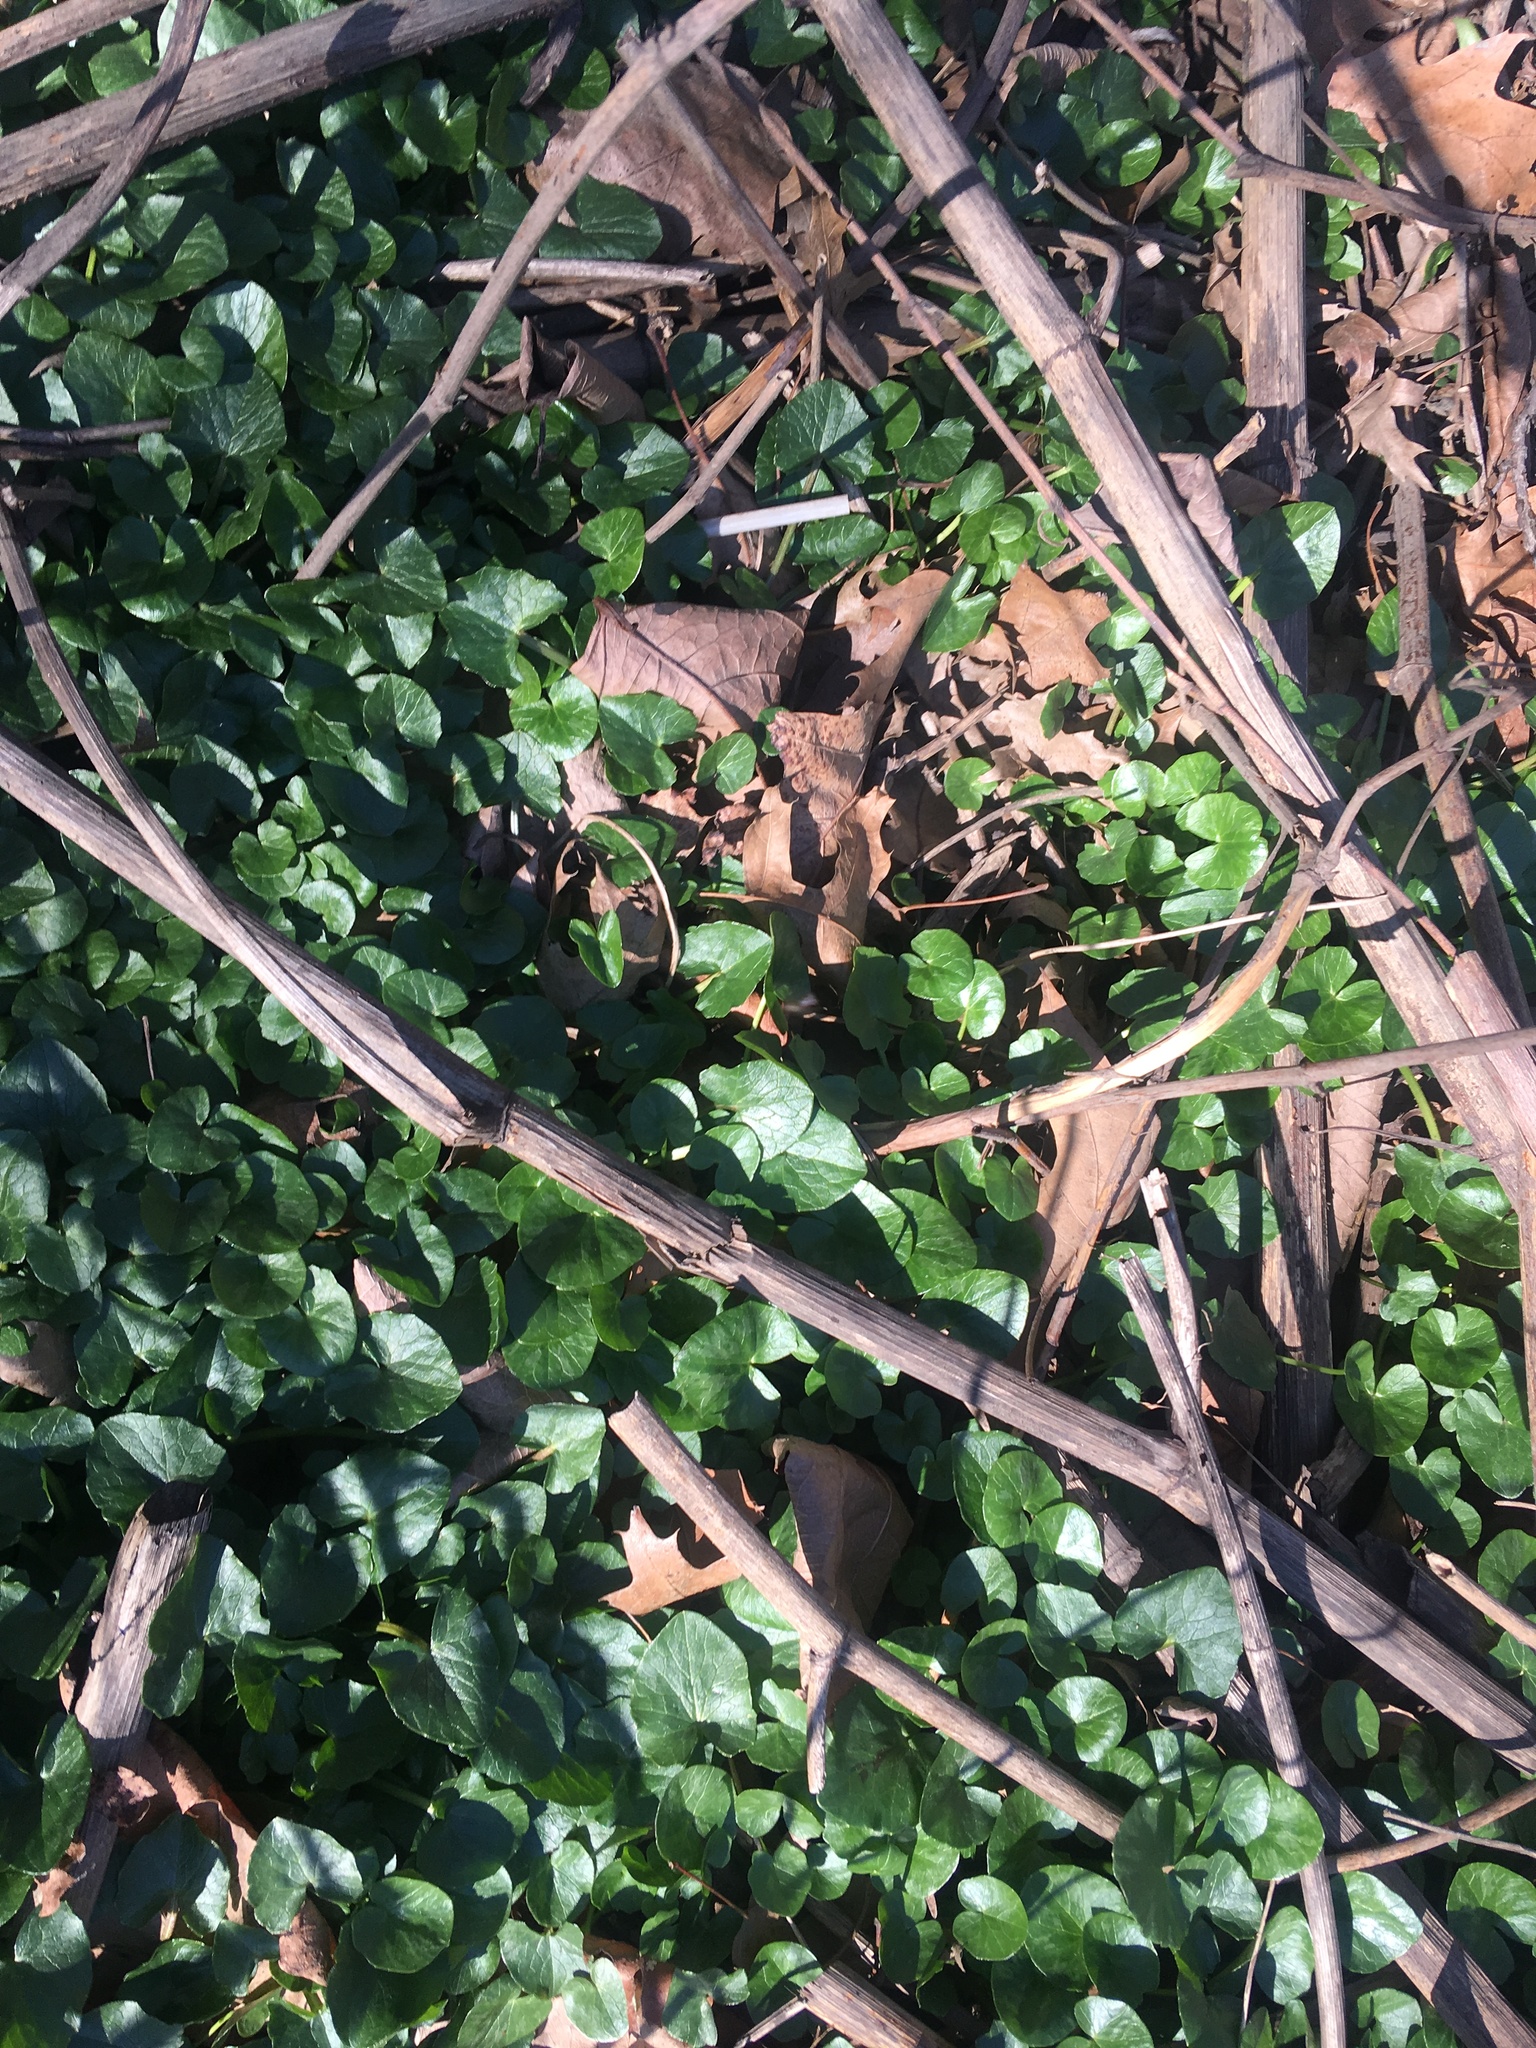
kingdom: Plantae
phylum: Tracheophyta
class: Magnoliopsida
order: Ranunculales
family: Ranunculaceae
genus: Ficaria
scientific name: Ficaria verna
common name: Lesser celandine
